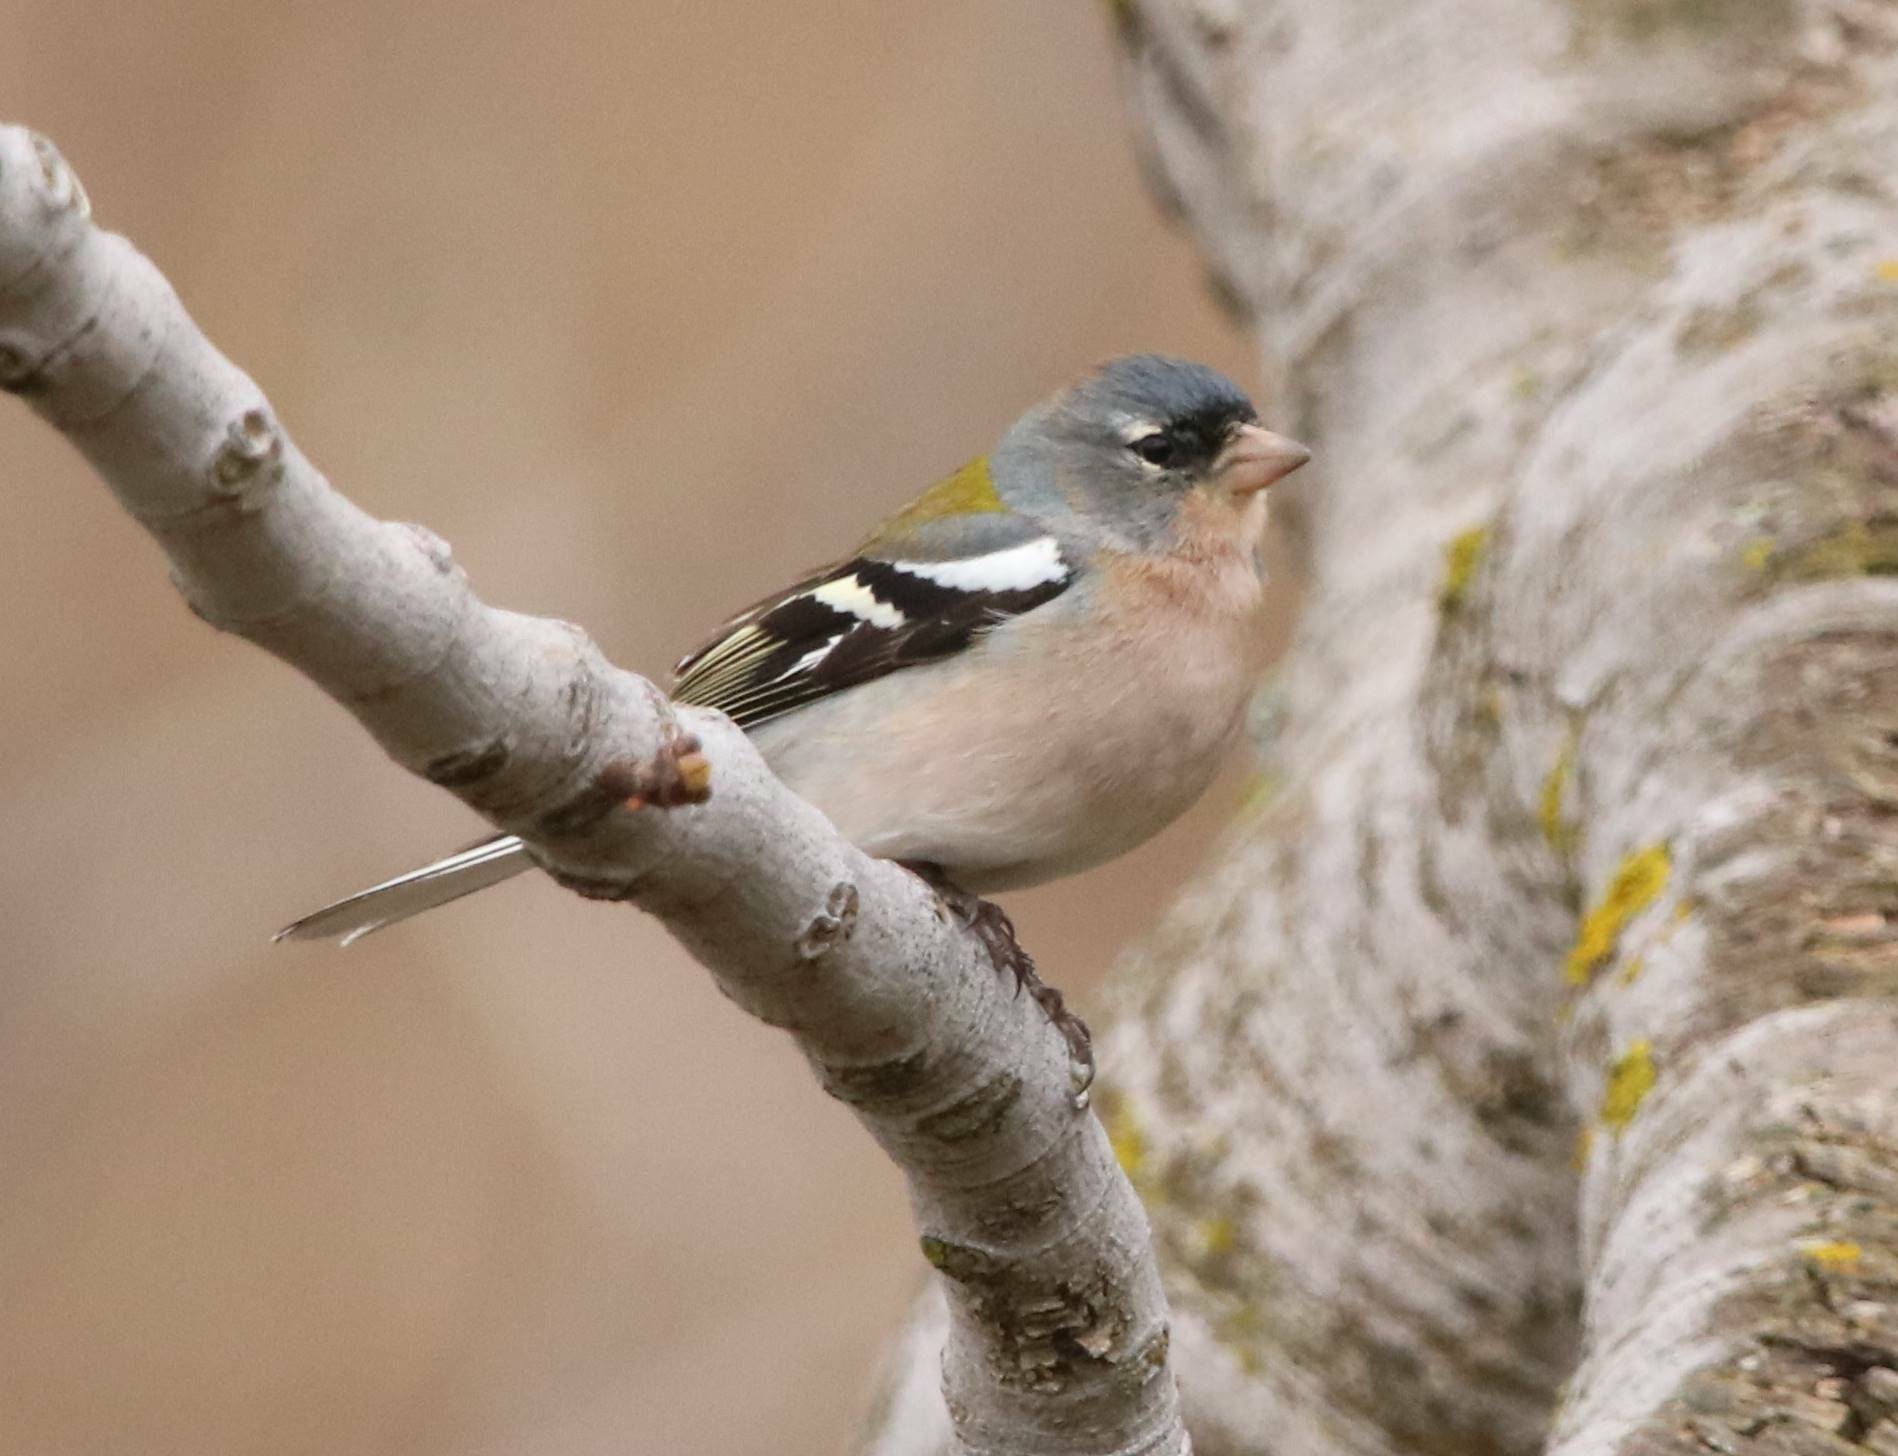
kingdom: Animalia
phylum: Chordata
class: Aves
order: Passeriformes
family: Fringillidae
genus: Fringilla
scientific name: Fringilla spodiogenys
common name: African chaffinch
